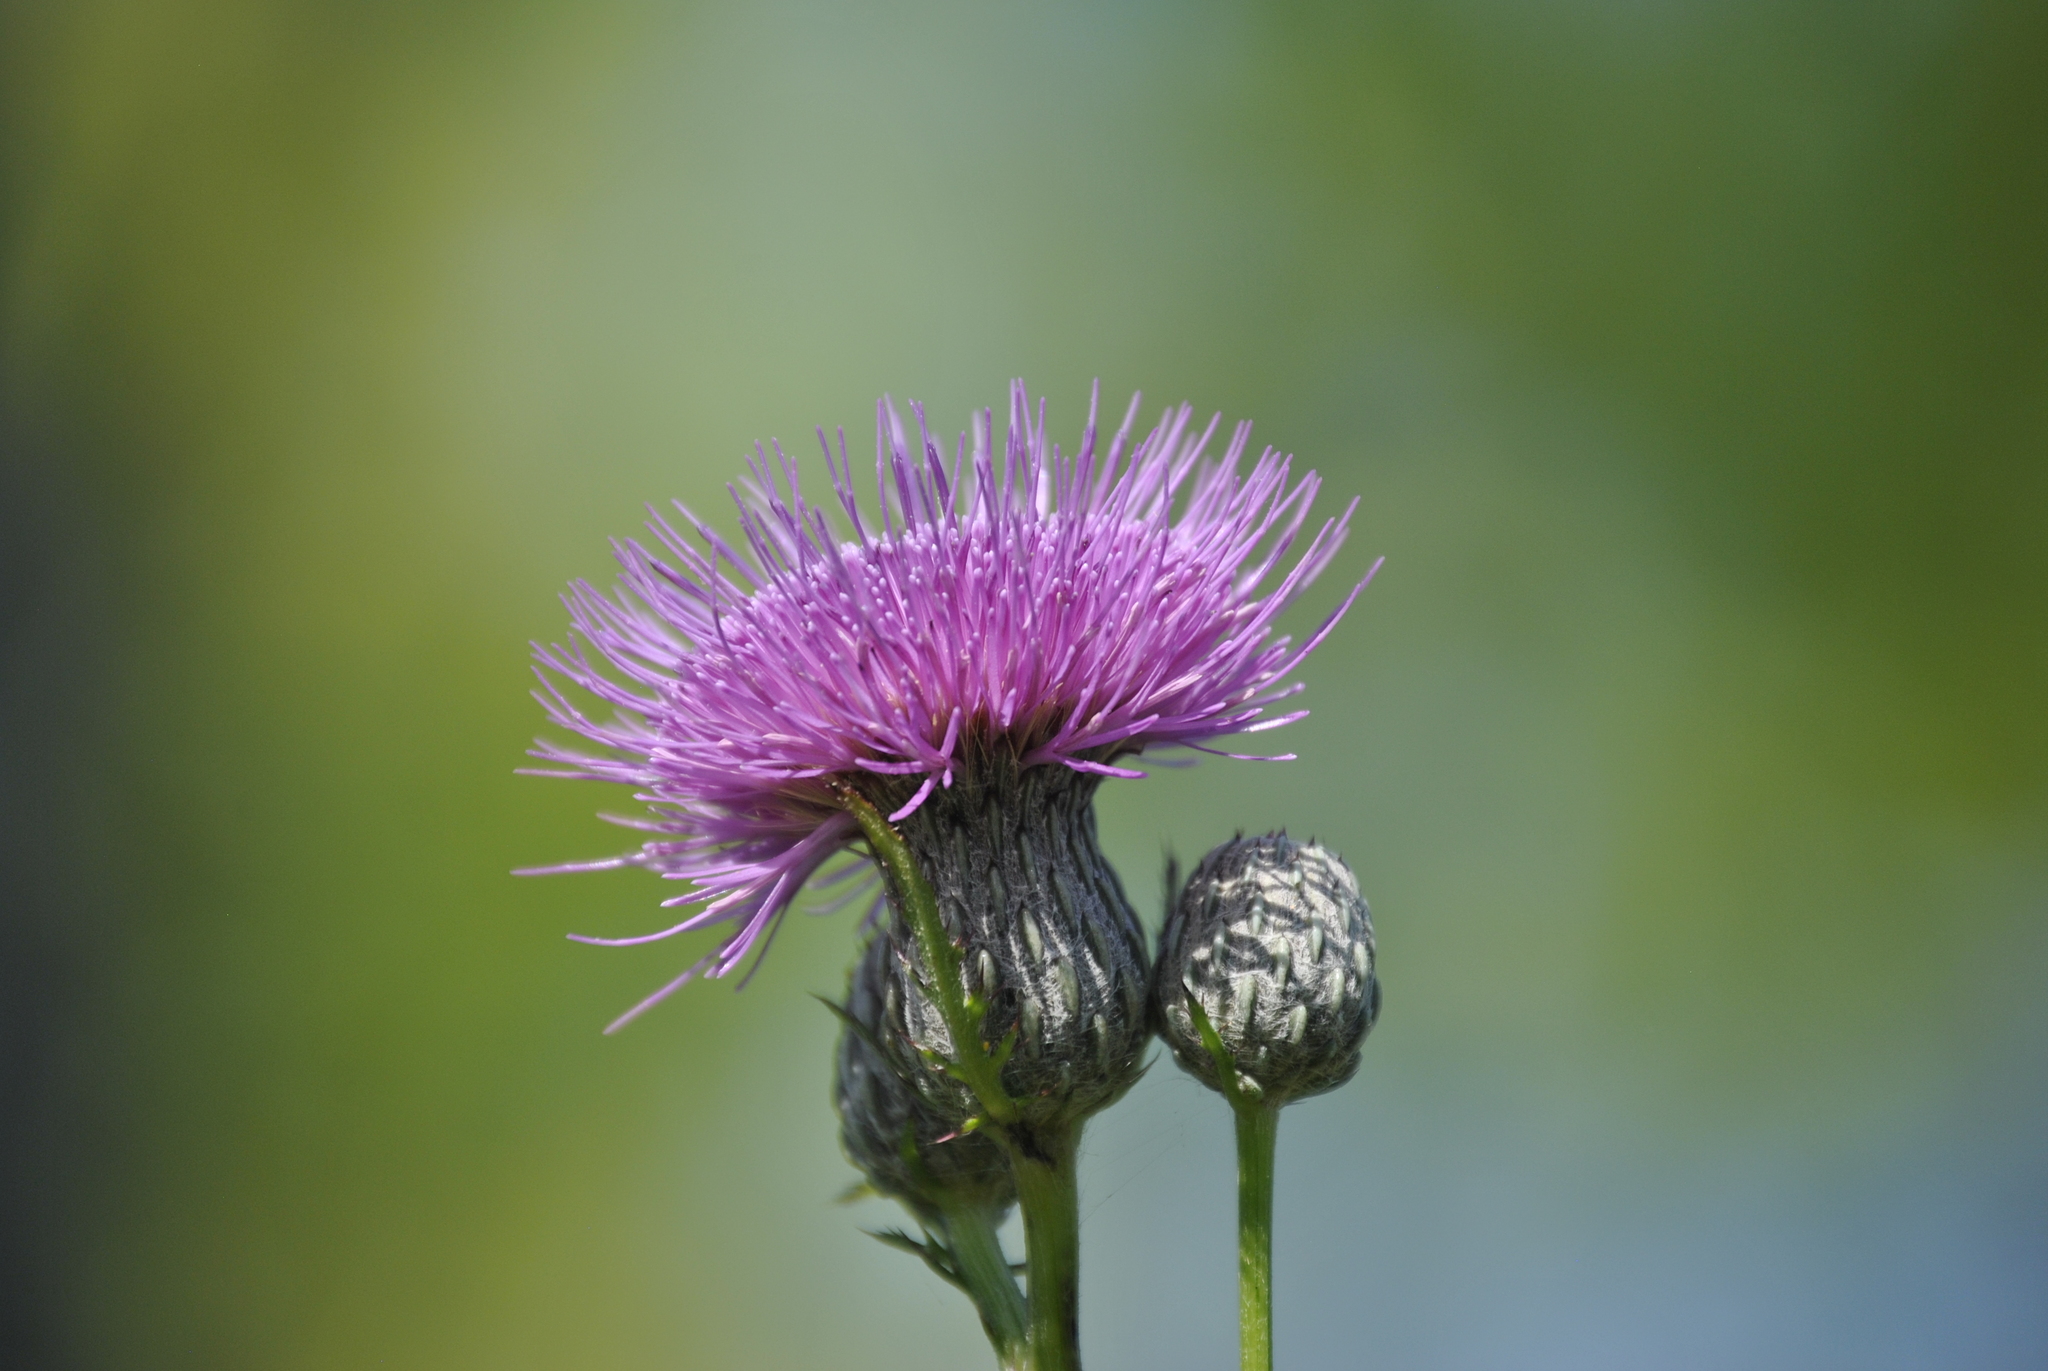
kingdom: Plantae
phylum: Tracheophyta
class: Magnoliopsida
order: Asterales
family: Asteraceae
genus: Cirsium
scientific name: Cirsium muticum
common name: Dunce-nettle
